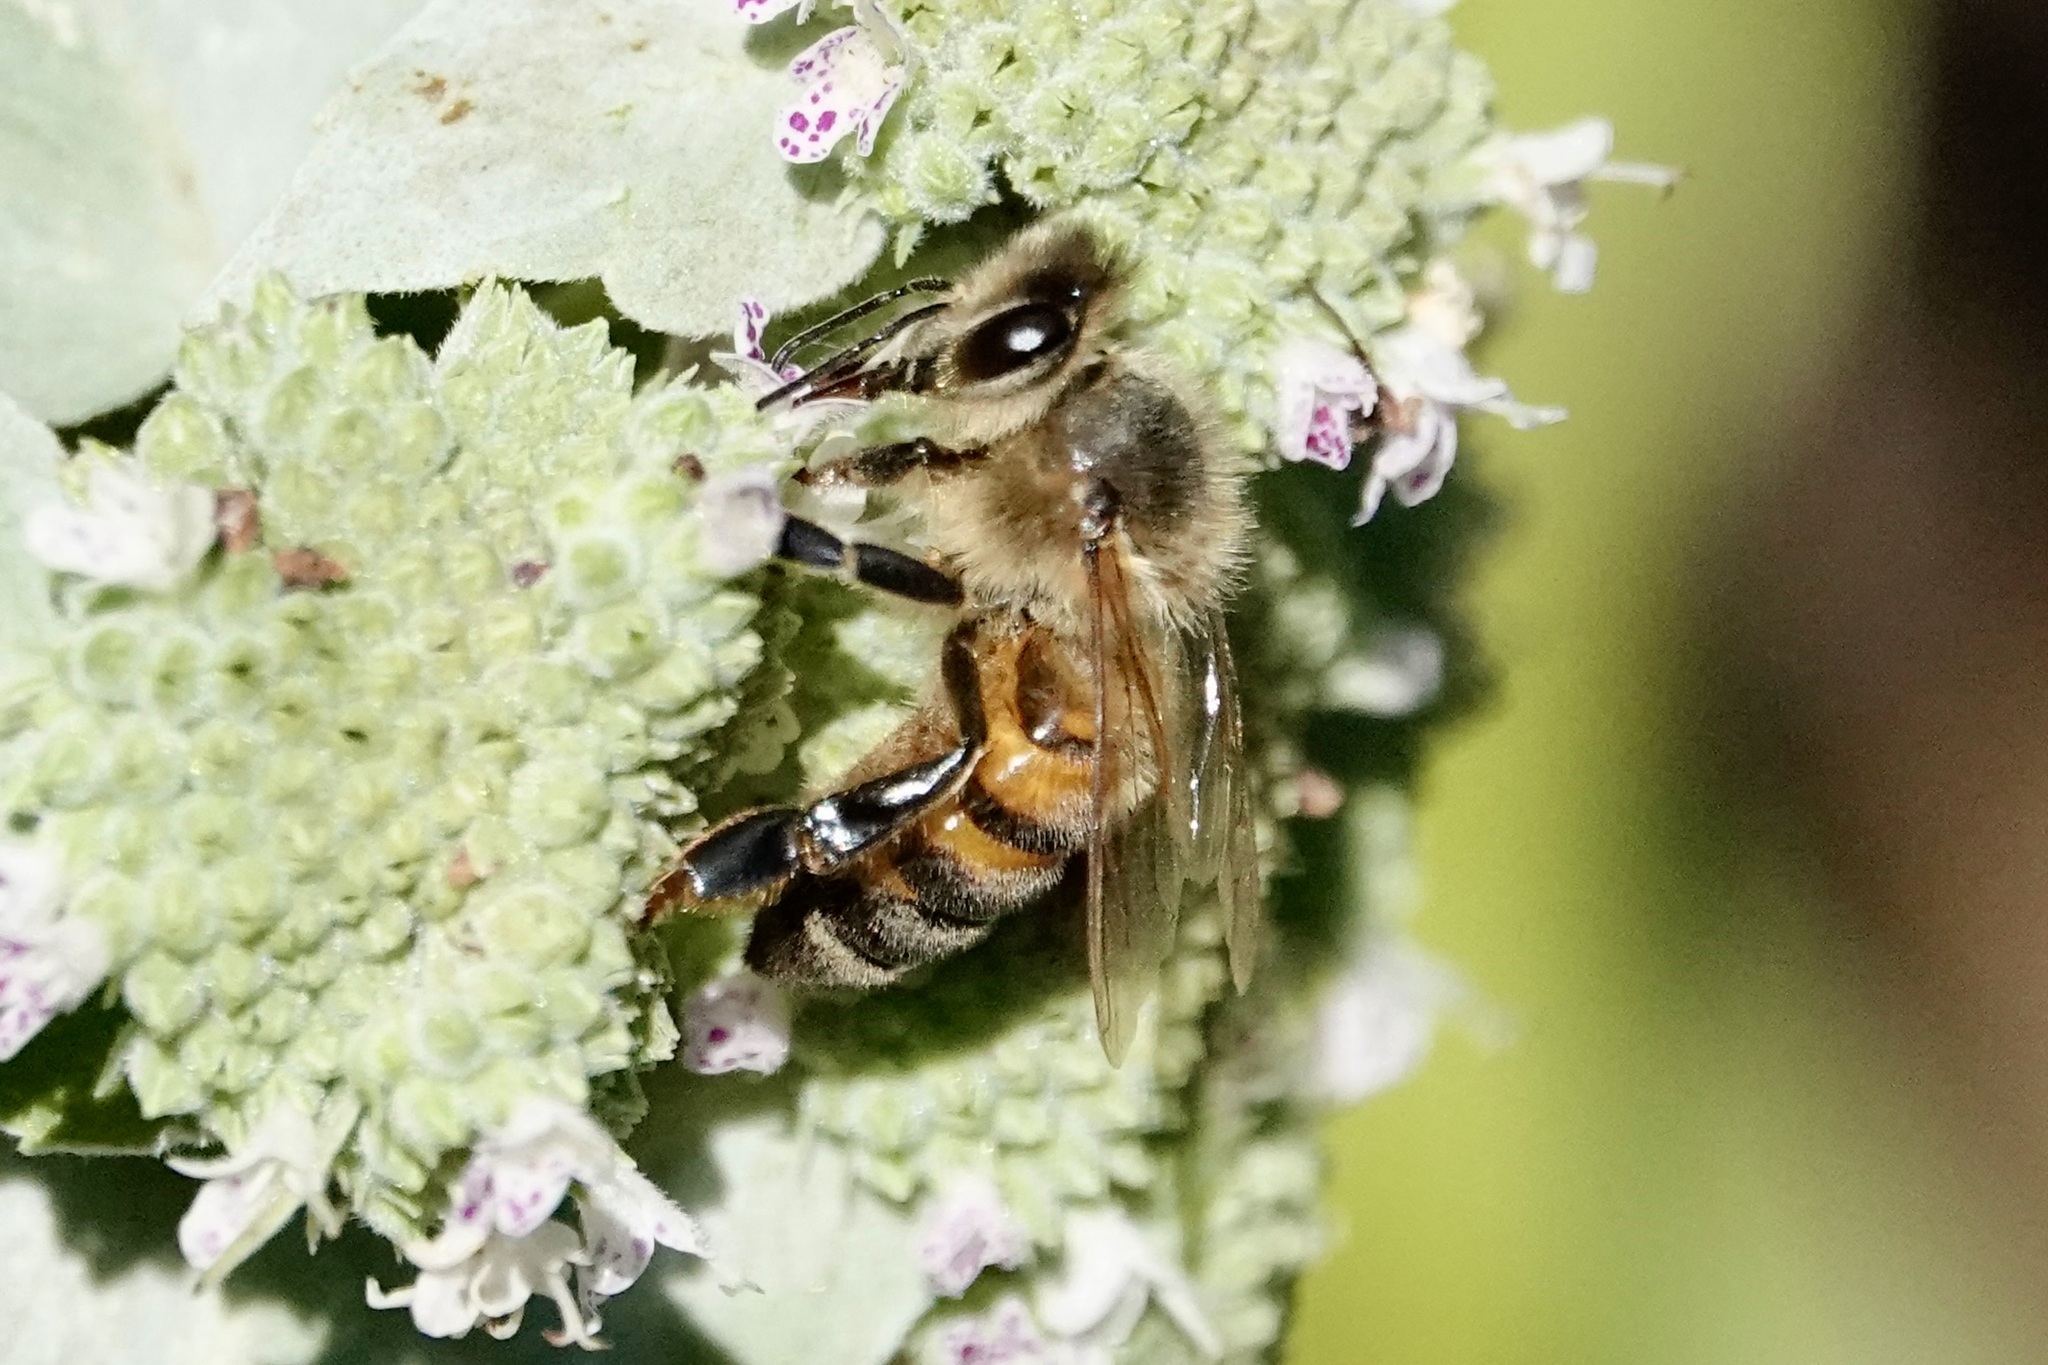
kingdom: Animalia
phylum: Arthropoda
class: Insecta
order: Hymenoptera
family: Apidae
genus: Apis
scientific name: Apis mellifera
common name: Honey bee
